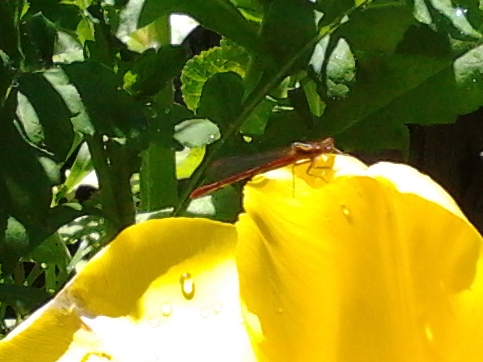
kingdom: Animalia
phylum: Arthropoda
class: Insecta
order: Odonata
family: Coenagrionidae
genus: Xanthocnemis
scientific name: Xanthocnemis zealandica
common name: Common redcoat damselfly
